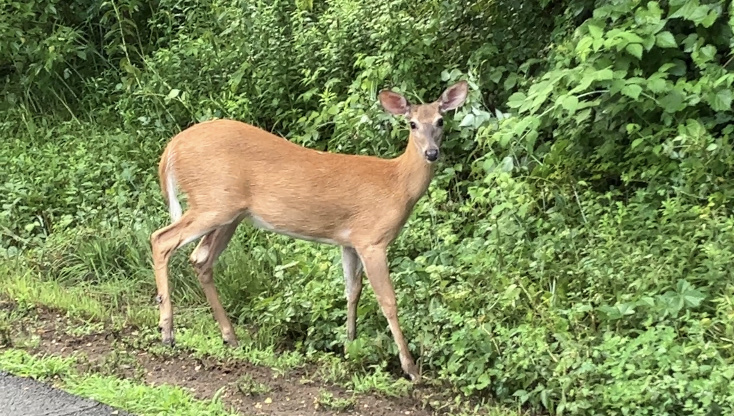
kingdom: Animalia
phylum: Chordata
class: Mammalia
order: Artiodactyla
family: Cervidae
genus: Odocoileus
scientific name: Odocoileus virginianus
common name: White-tailed deer
